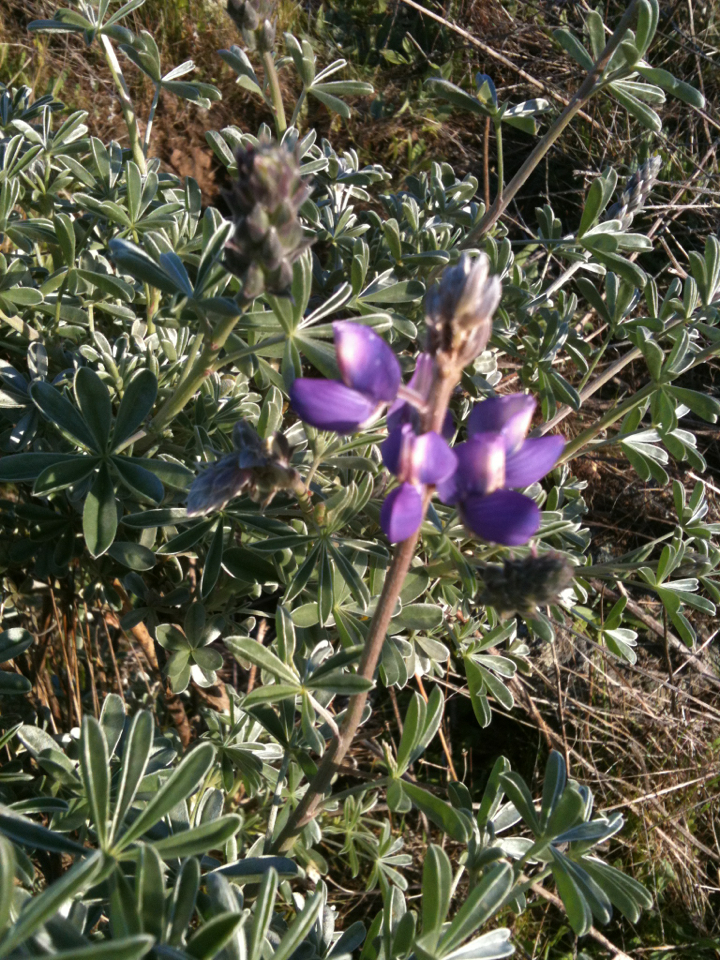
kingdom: Plantae
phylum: Tracheophyta
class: Magnoliopsida
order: Fabales
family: Fabaceae
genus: Lupinus
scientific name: Lupinus albifrons
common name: Foothill lupine
